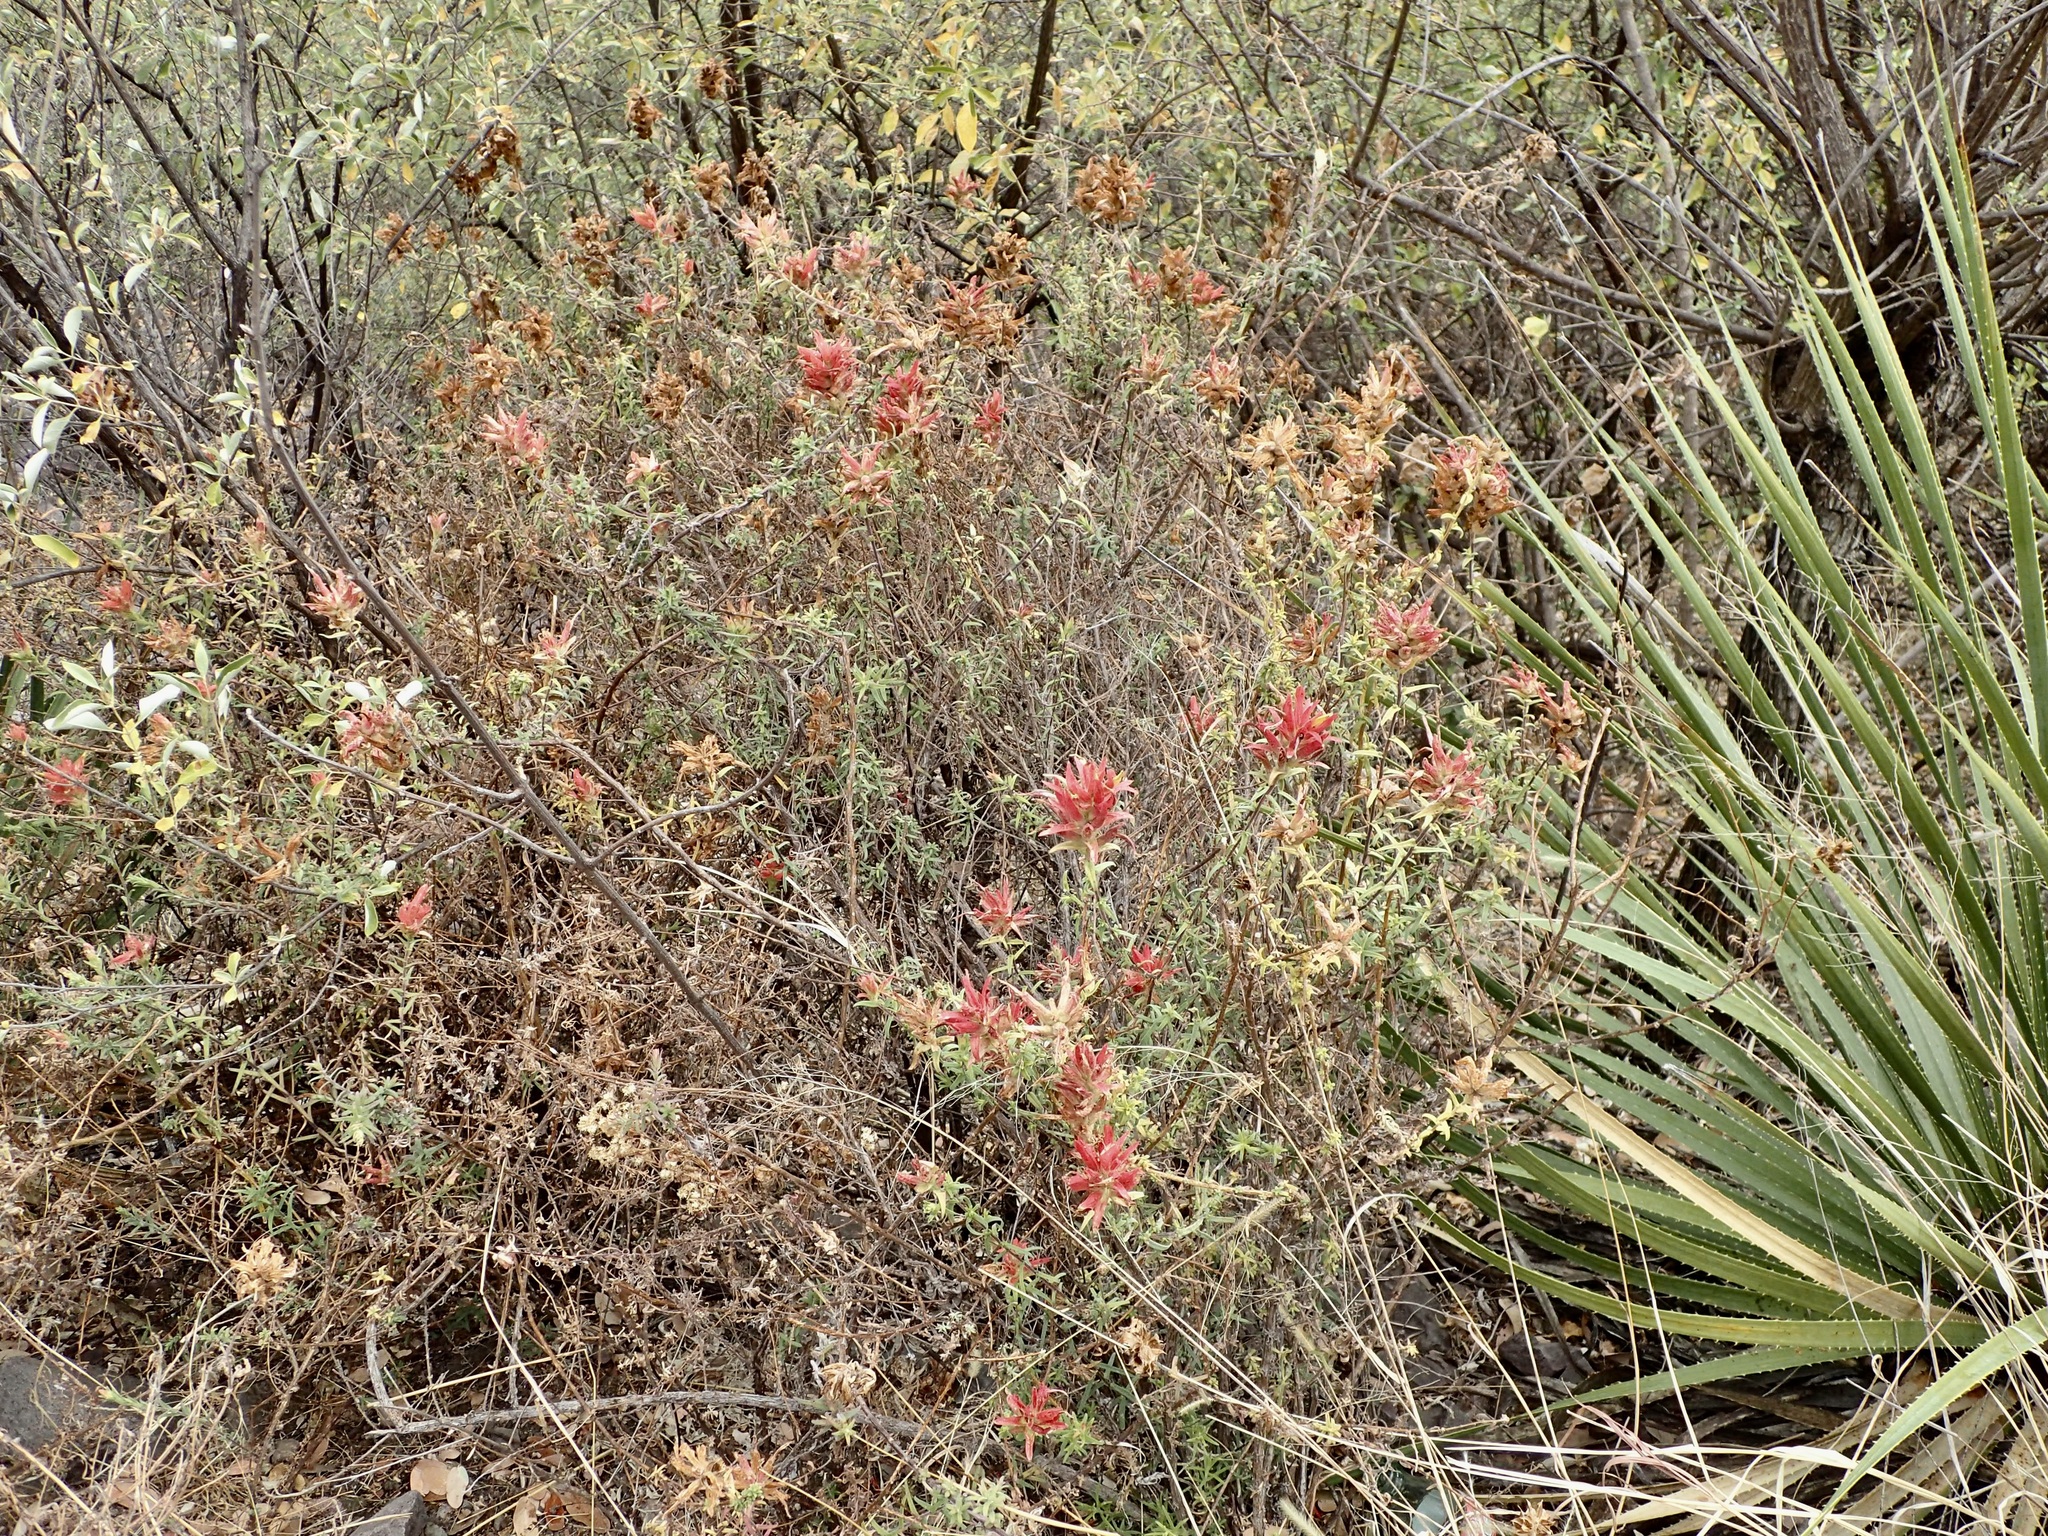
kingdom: Plantae
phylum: Tracheophyta
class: Magnoliopsida
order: Lamiales
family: Orobanchaceae
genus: Castilleja
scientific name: Castilleja tenuiflora
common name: Santa catalina indian paintbrush
